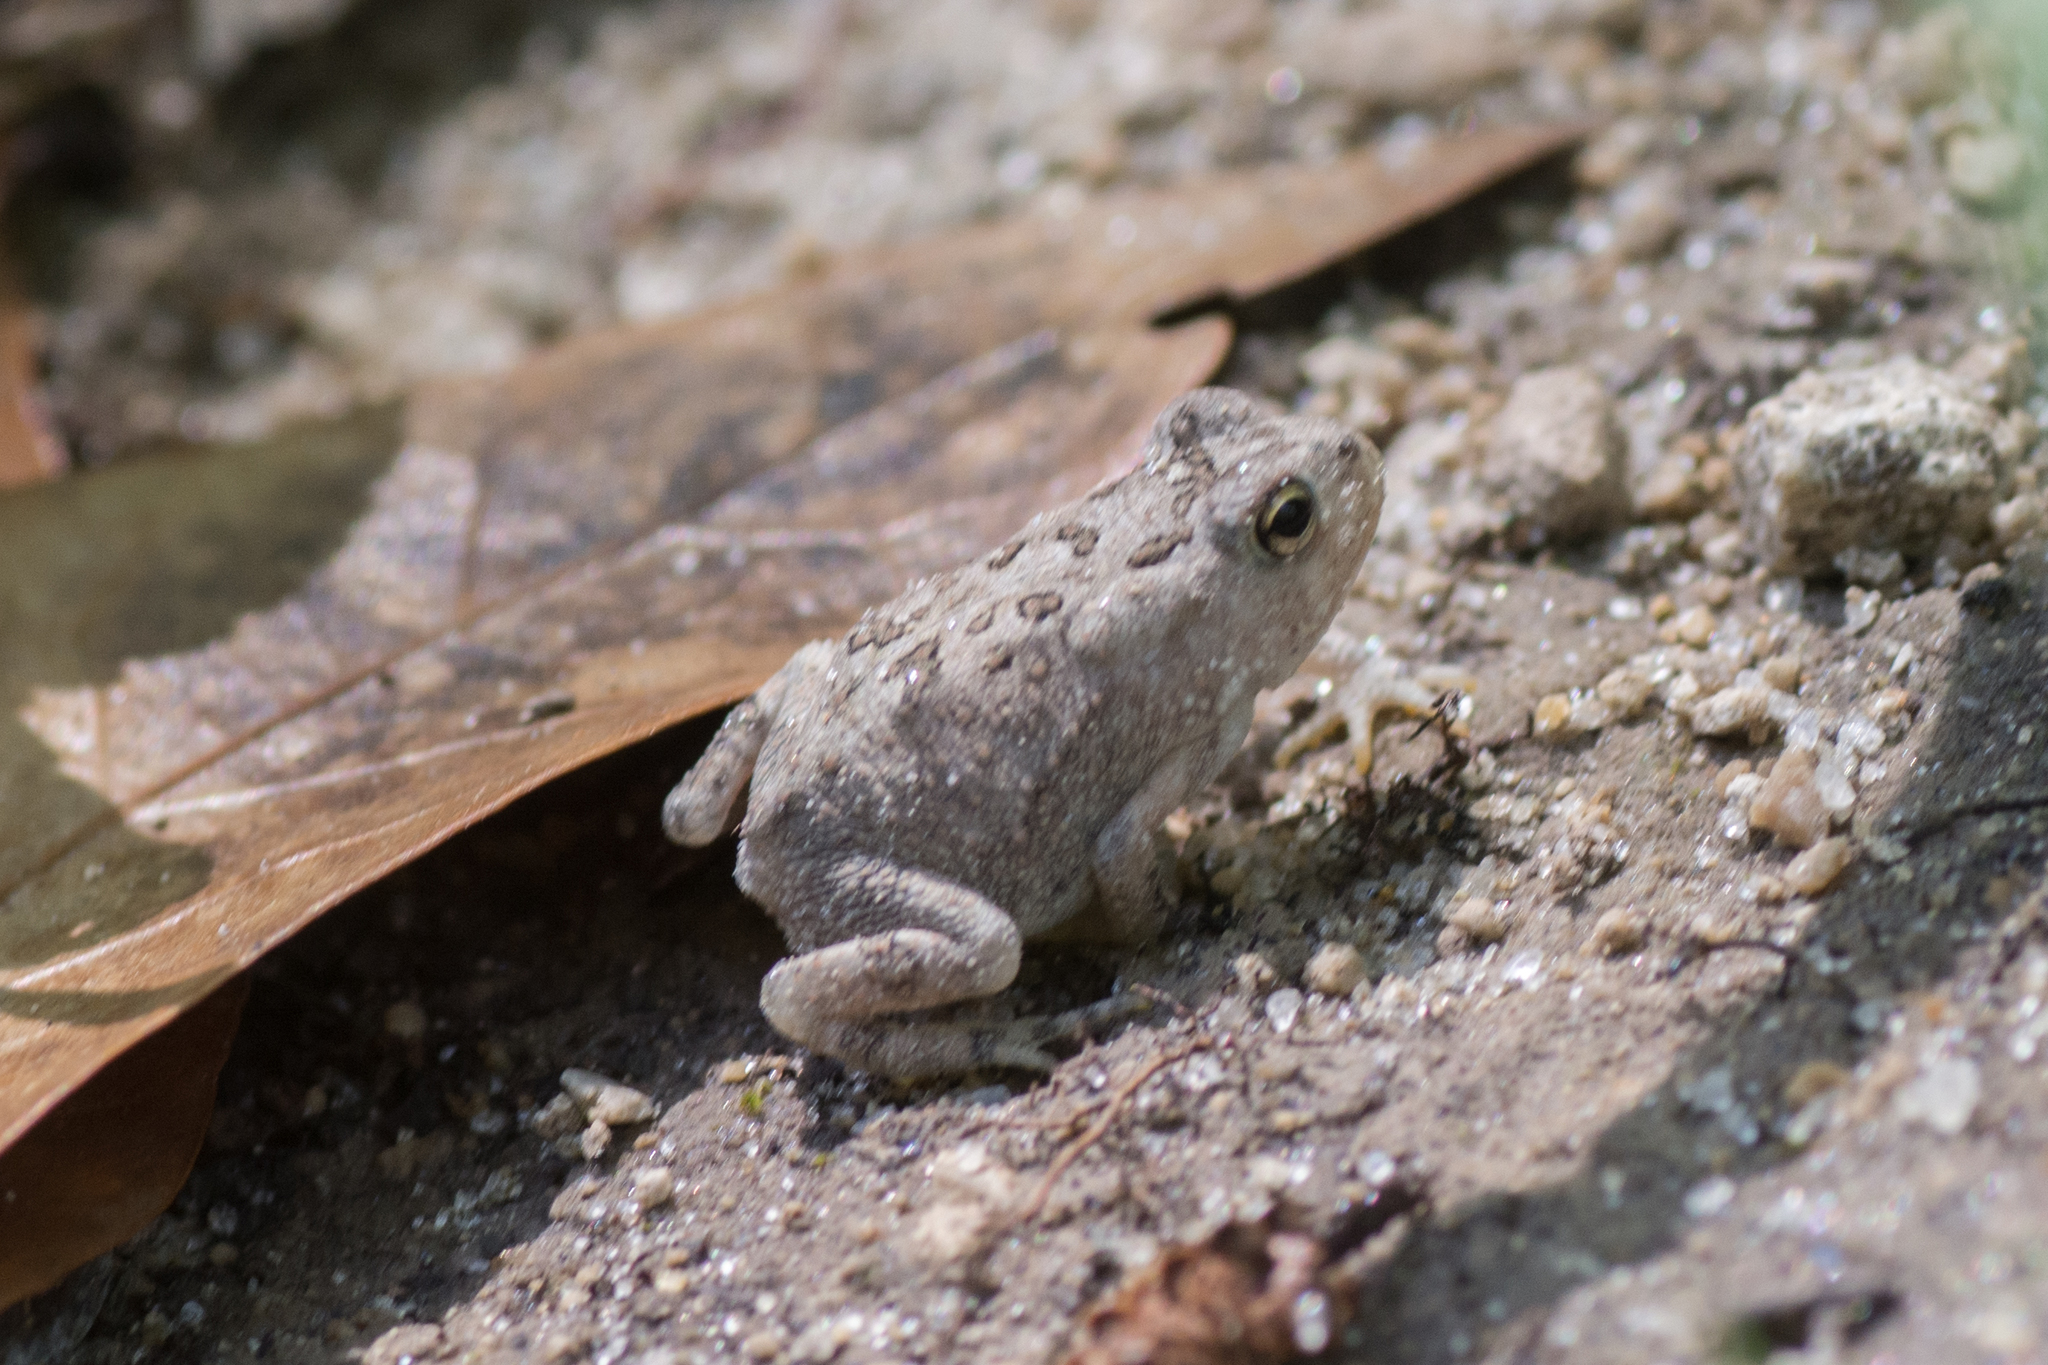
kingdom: Animalia
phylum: Chordata
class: Amphibia
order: Anura
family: Bufonidae
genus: Anaxyrus
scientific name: Anaxyrus terrestris
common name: Southern toad
